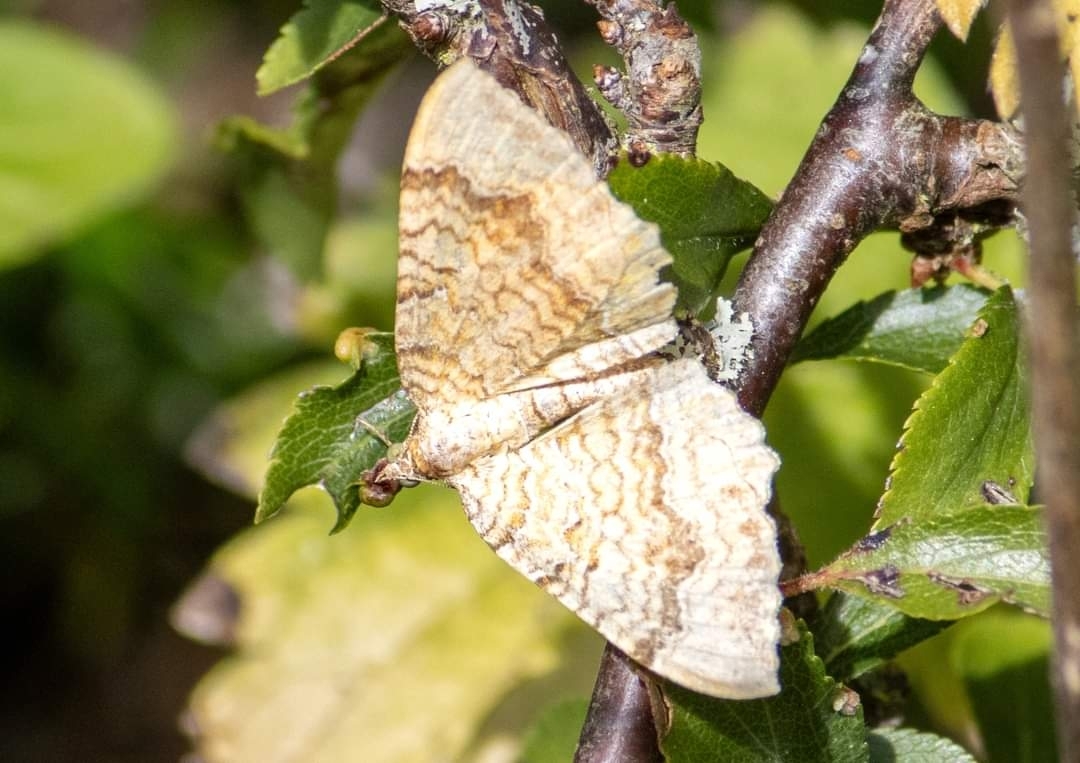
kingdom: Animalia
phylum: Arthropoda
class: Insecta
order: Lepidoptera
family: Geometridae
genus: Camptogramma
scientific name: Camptogramma bilineata
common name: Yellow shell
